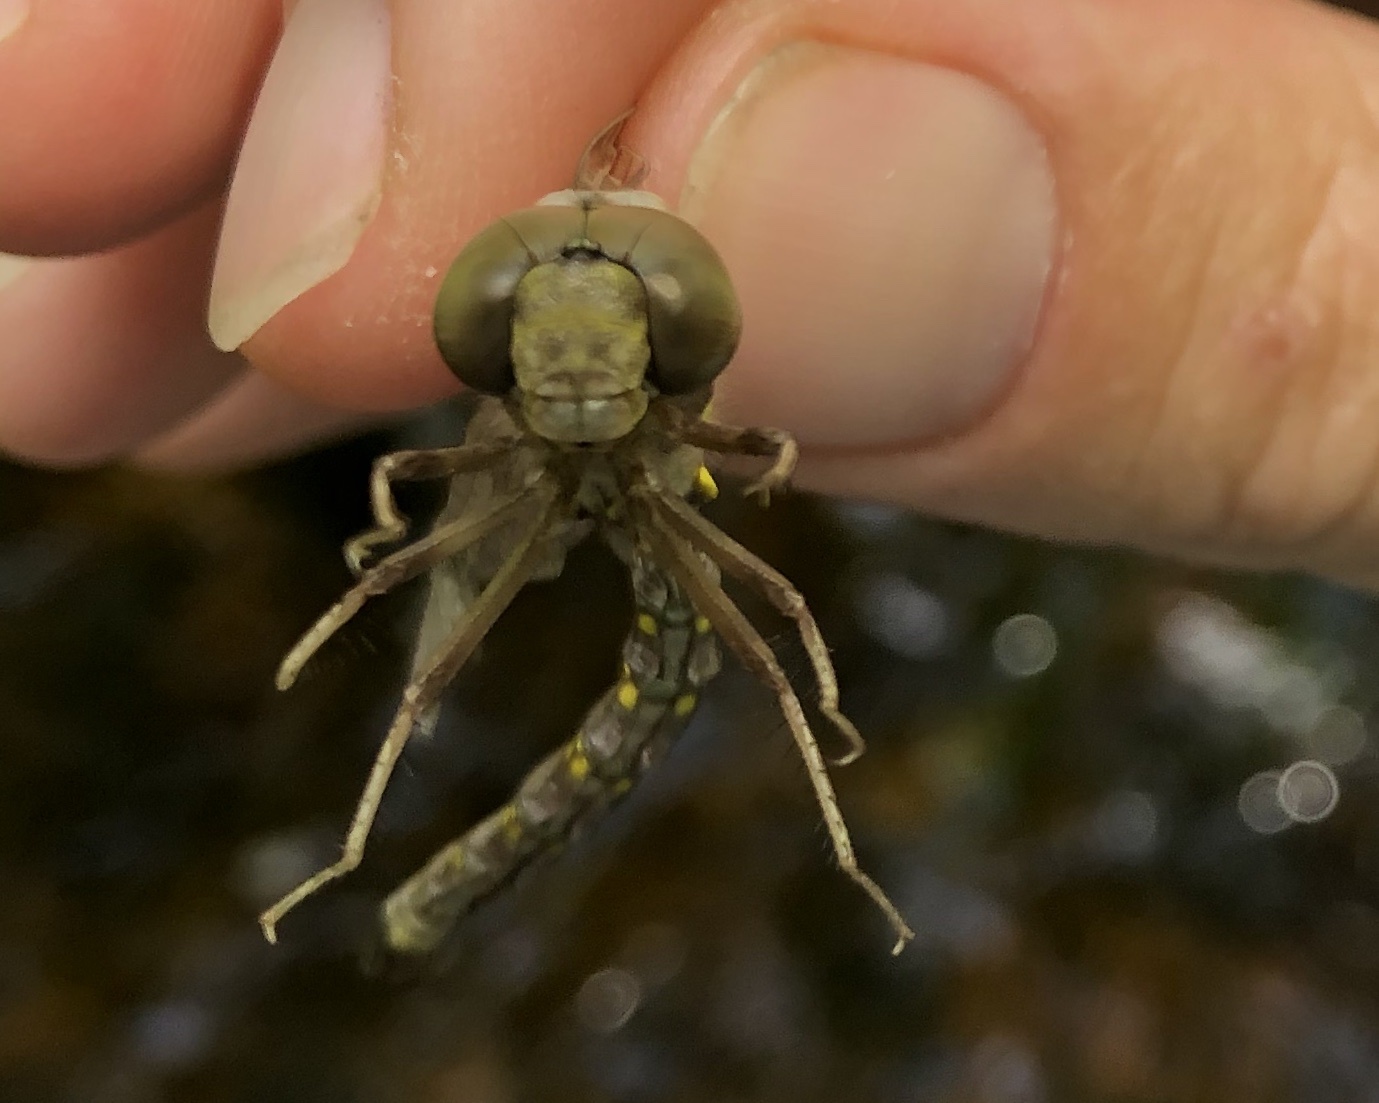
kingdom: Animalia
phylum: Arthropoda
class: Insecta
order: Odonata
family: Aeshnidae
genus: Boyeria
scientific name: Boyeria vinosa
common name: Fawn darner
